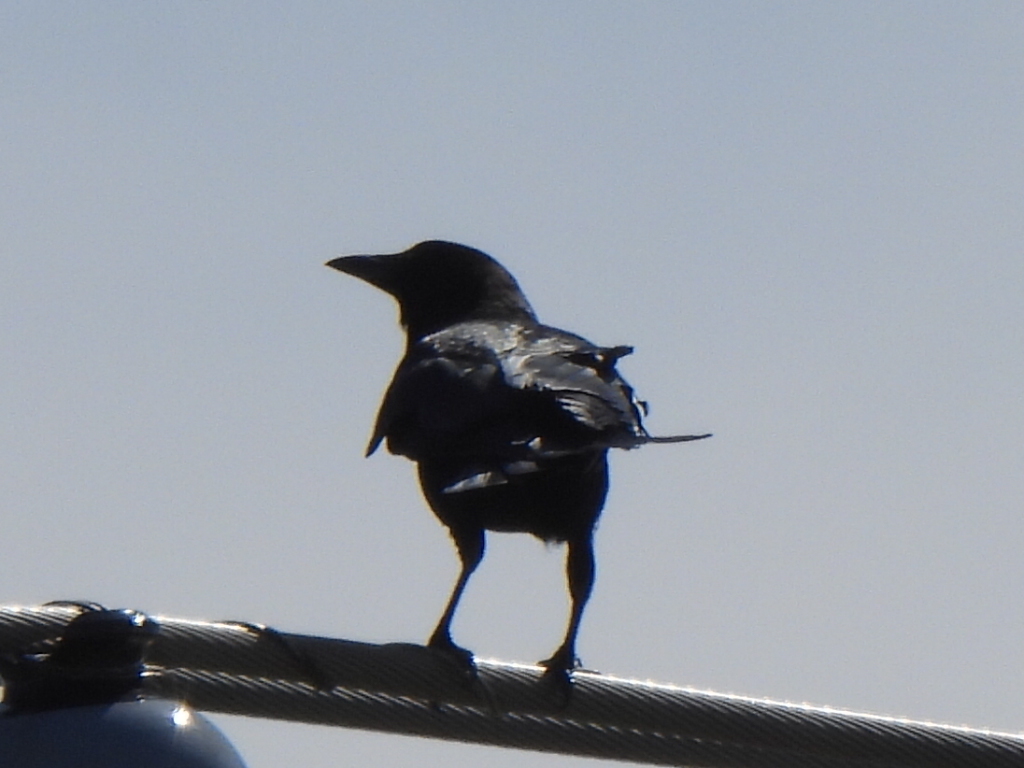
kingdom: Animalia
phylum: Chordata
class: Aves
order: Passeriformes
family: Corvidae
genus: Corvus
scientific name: Corvus brachyrhynchos
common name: American crow
